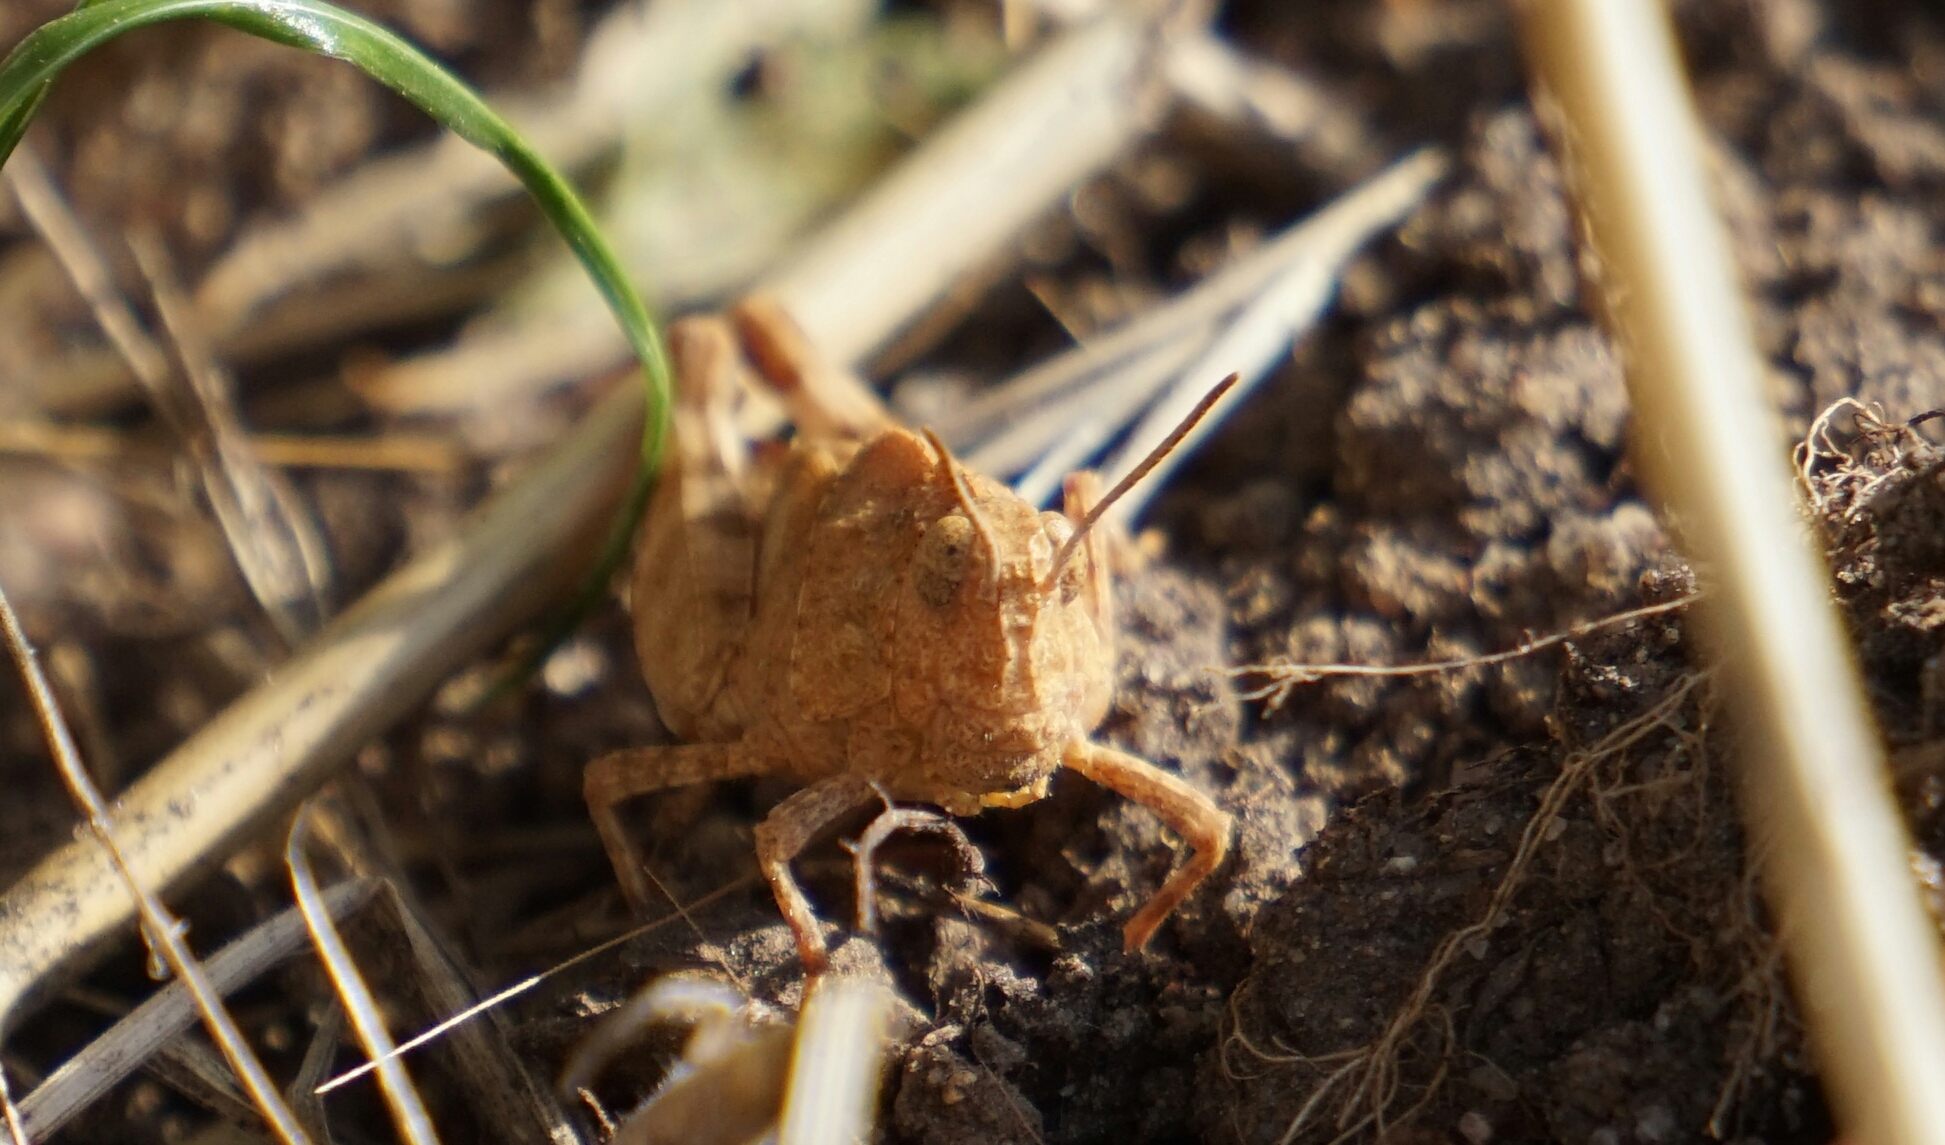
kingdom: Animalia
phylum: Arthropoda
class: Insecta
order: Orthoptera
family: Acrididae
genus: Oedipoda
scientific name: Oedipoda caerulescens
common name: Blue-winged grasshopper
